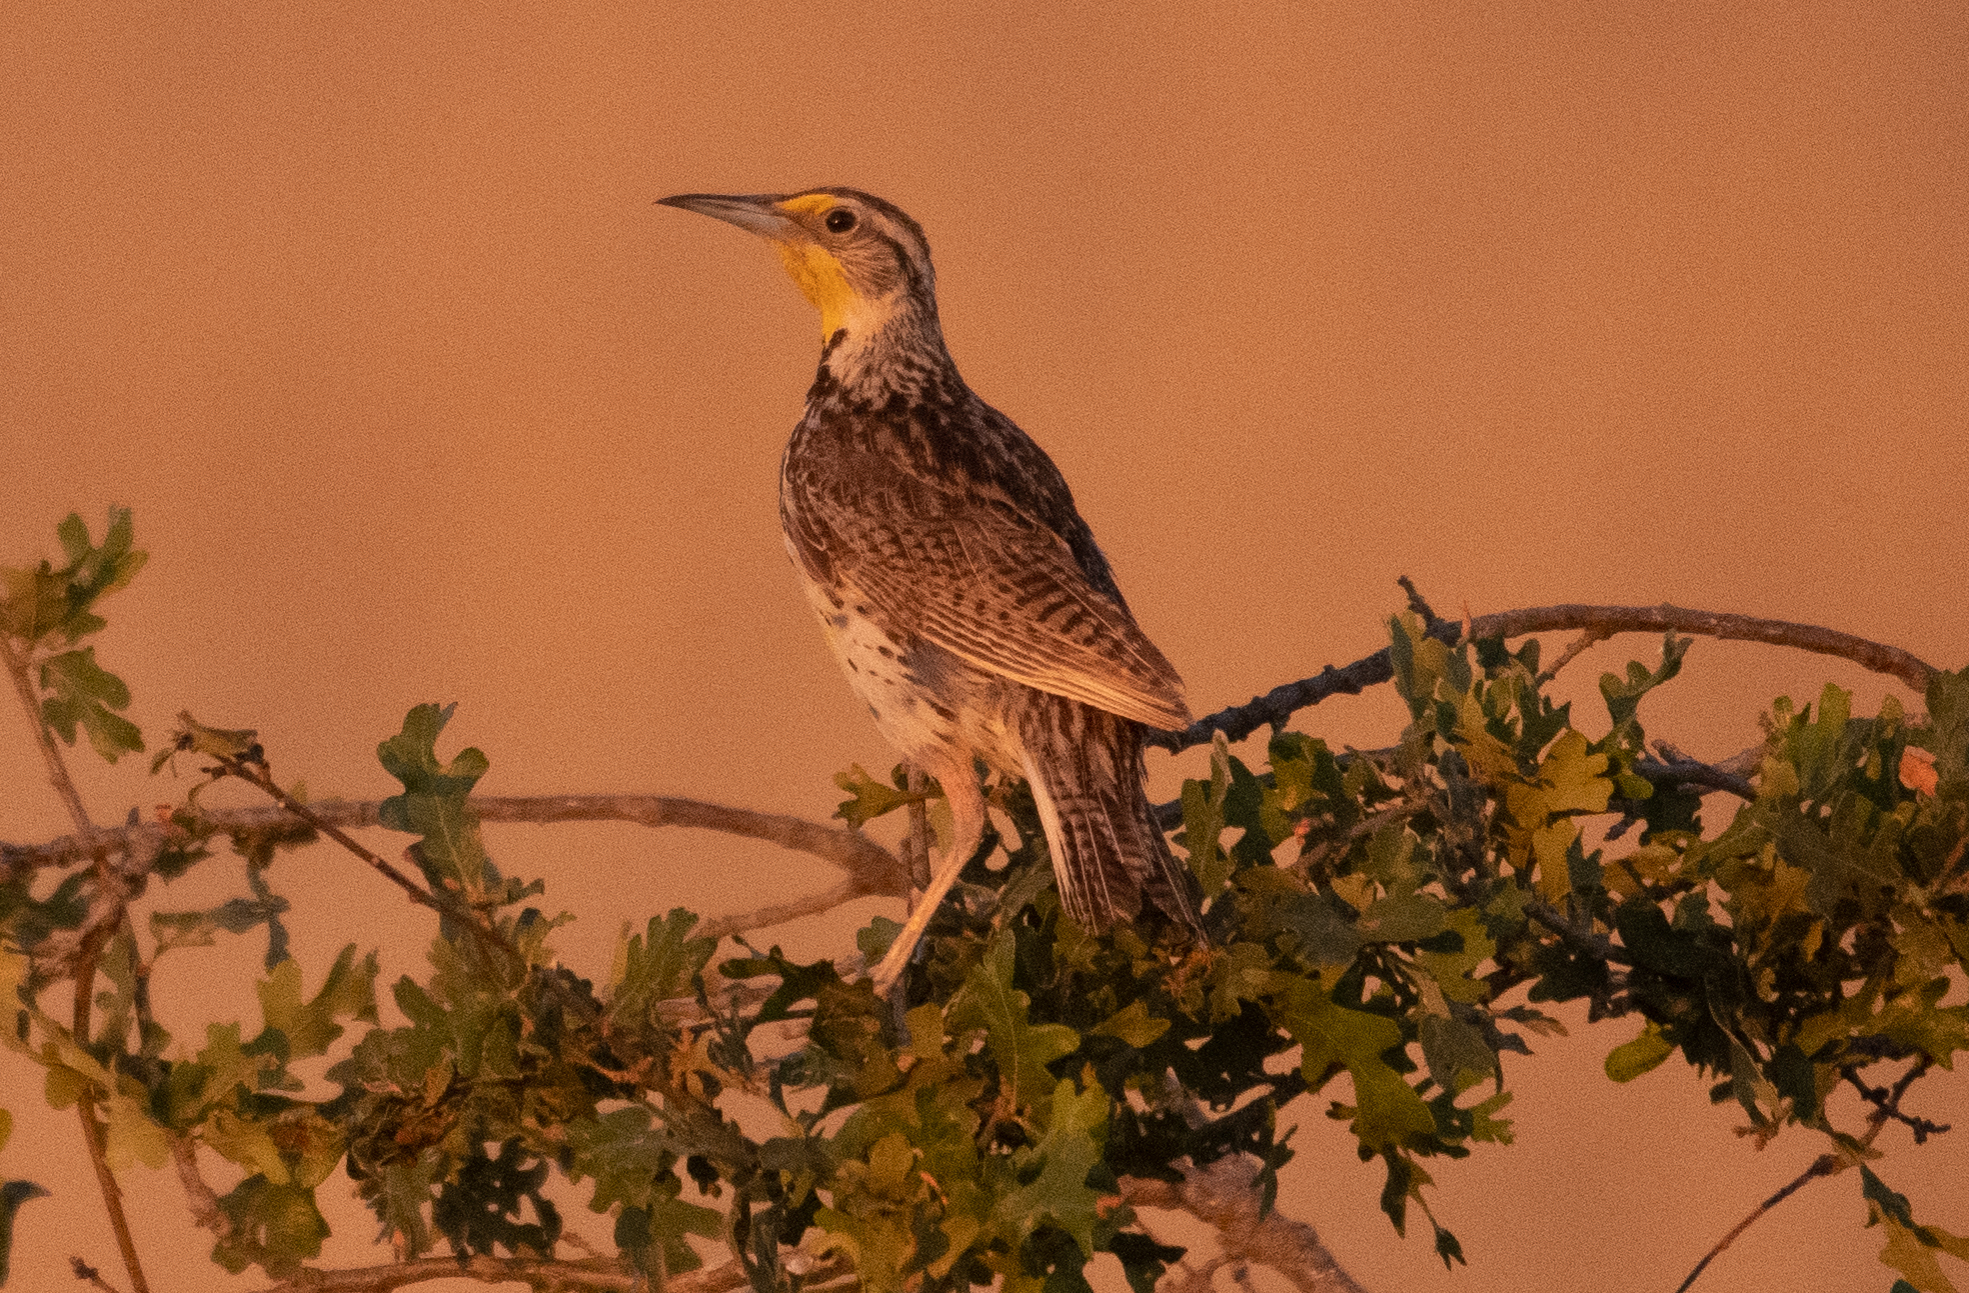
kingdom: Animalia
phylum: Chordata
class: Aves
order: Passeriformes
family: Icteridae
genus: Sturnella
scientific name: Sturnella neglecta
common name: Western meadowlark
